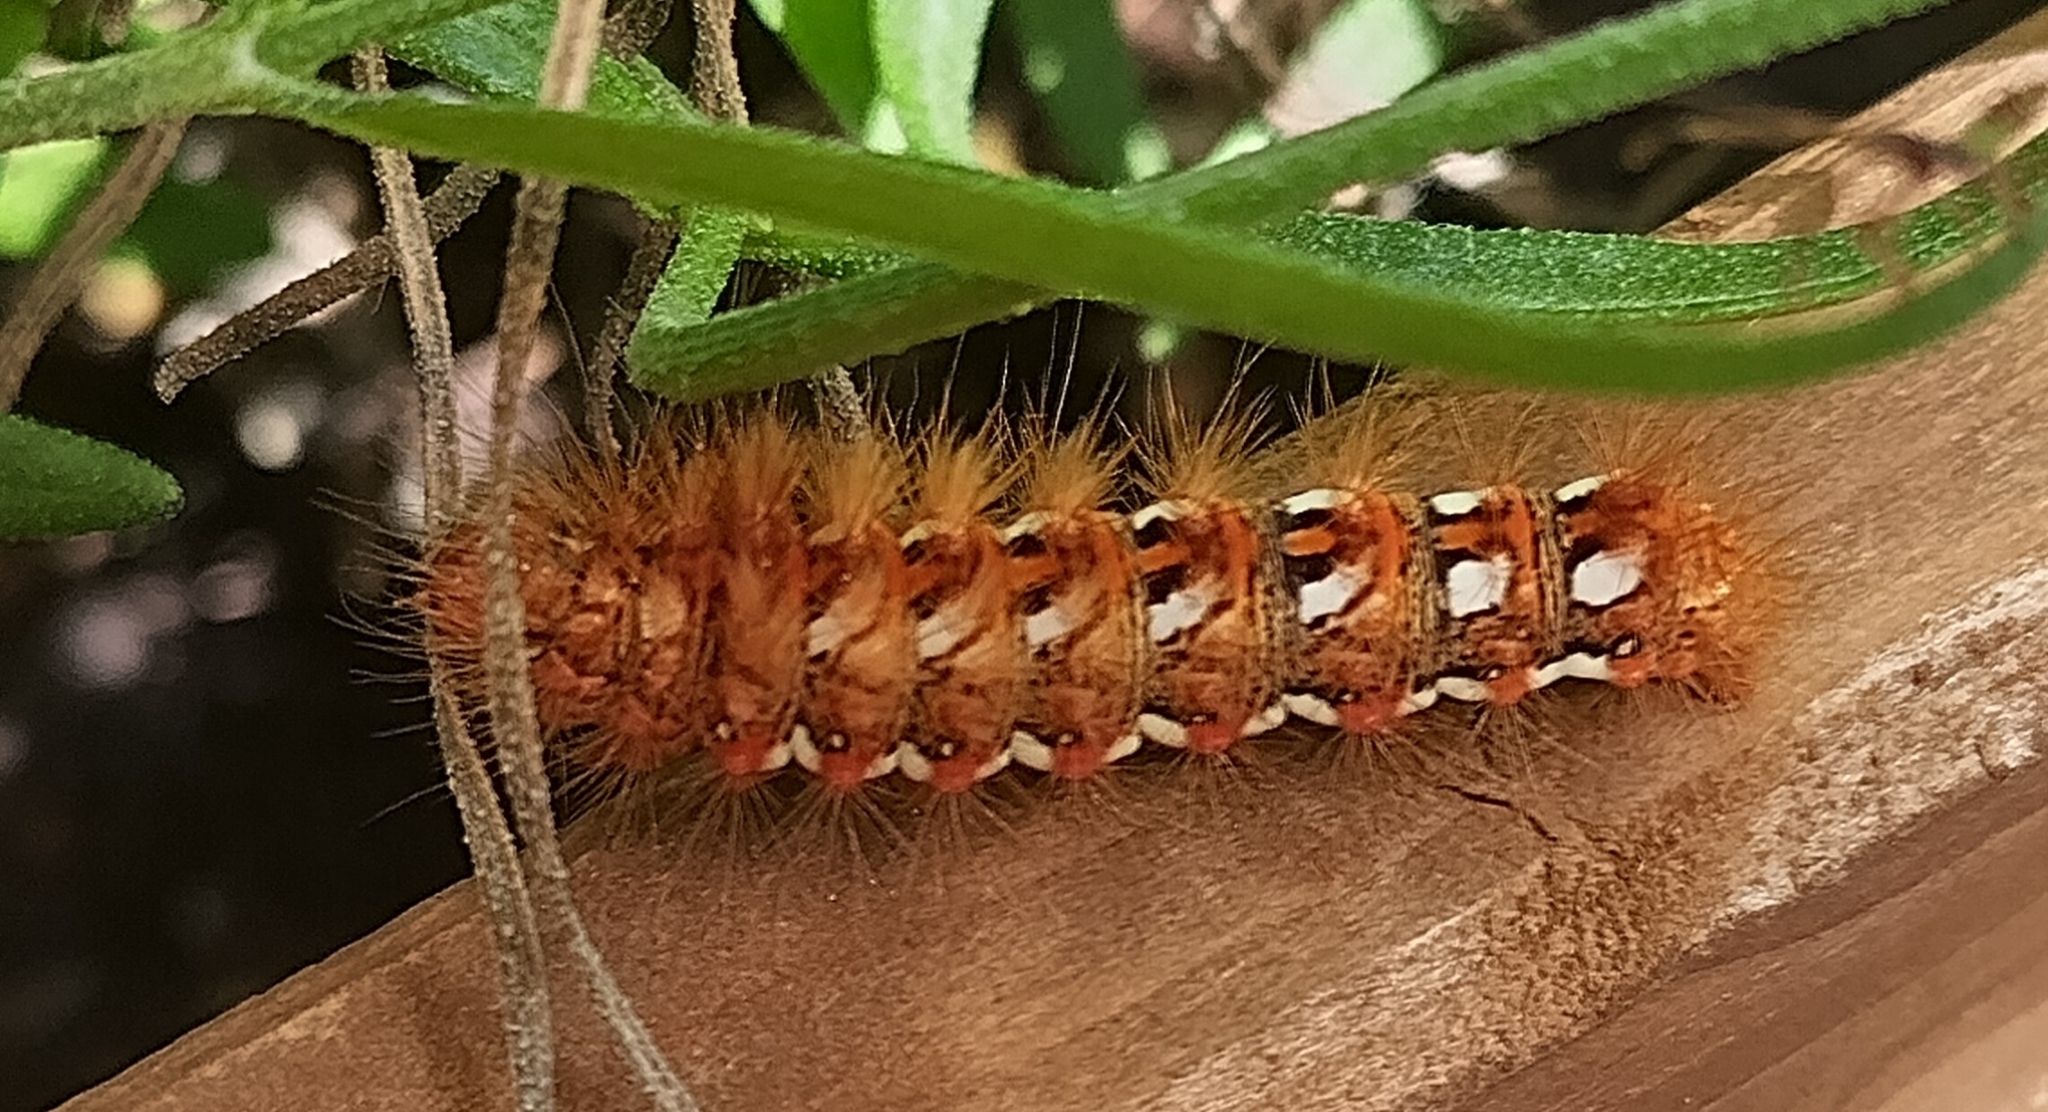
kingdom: Animalia
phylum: Arthropoda
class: Insecta
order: Lepidoptera
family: Noctuidae
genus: Acronicta
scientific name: Acronicta rumicis
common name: Knot grass
